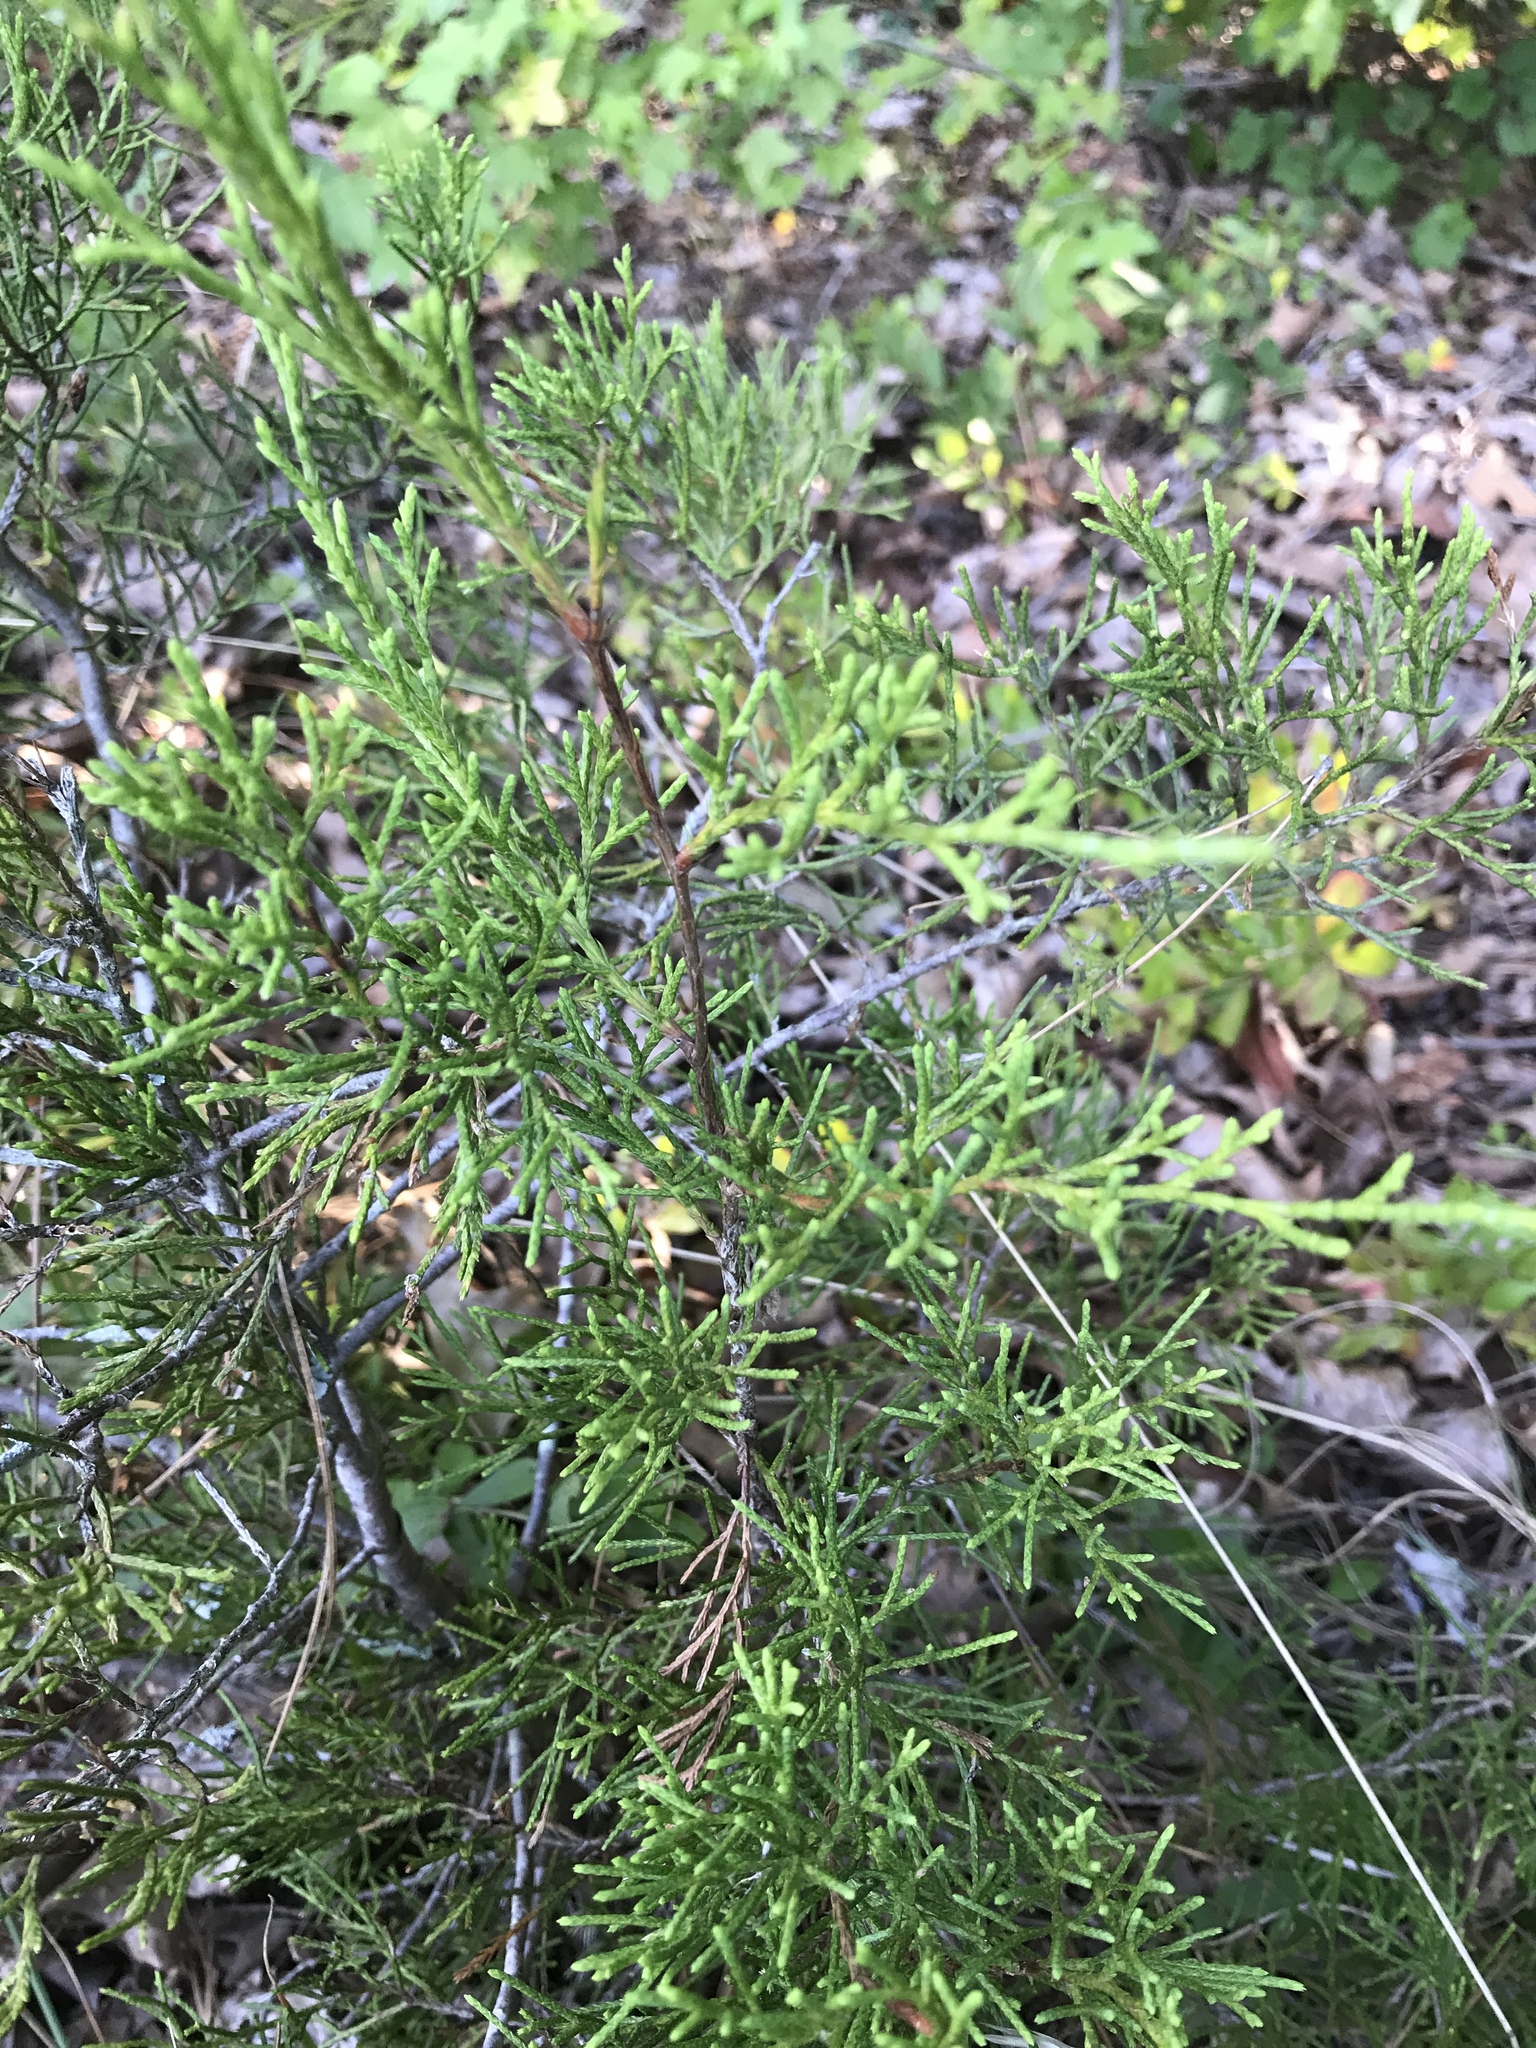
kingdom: Plantae
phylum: Tracheophyta
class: Pinopsida
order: Pinales
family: Cupressaceae
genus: Juniperus
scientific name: Juniperus virginiana
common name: Red juniper
